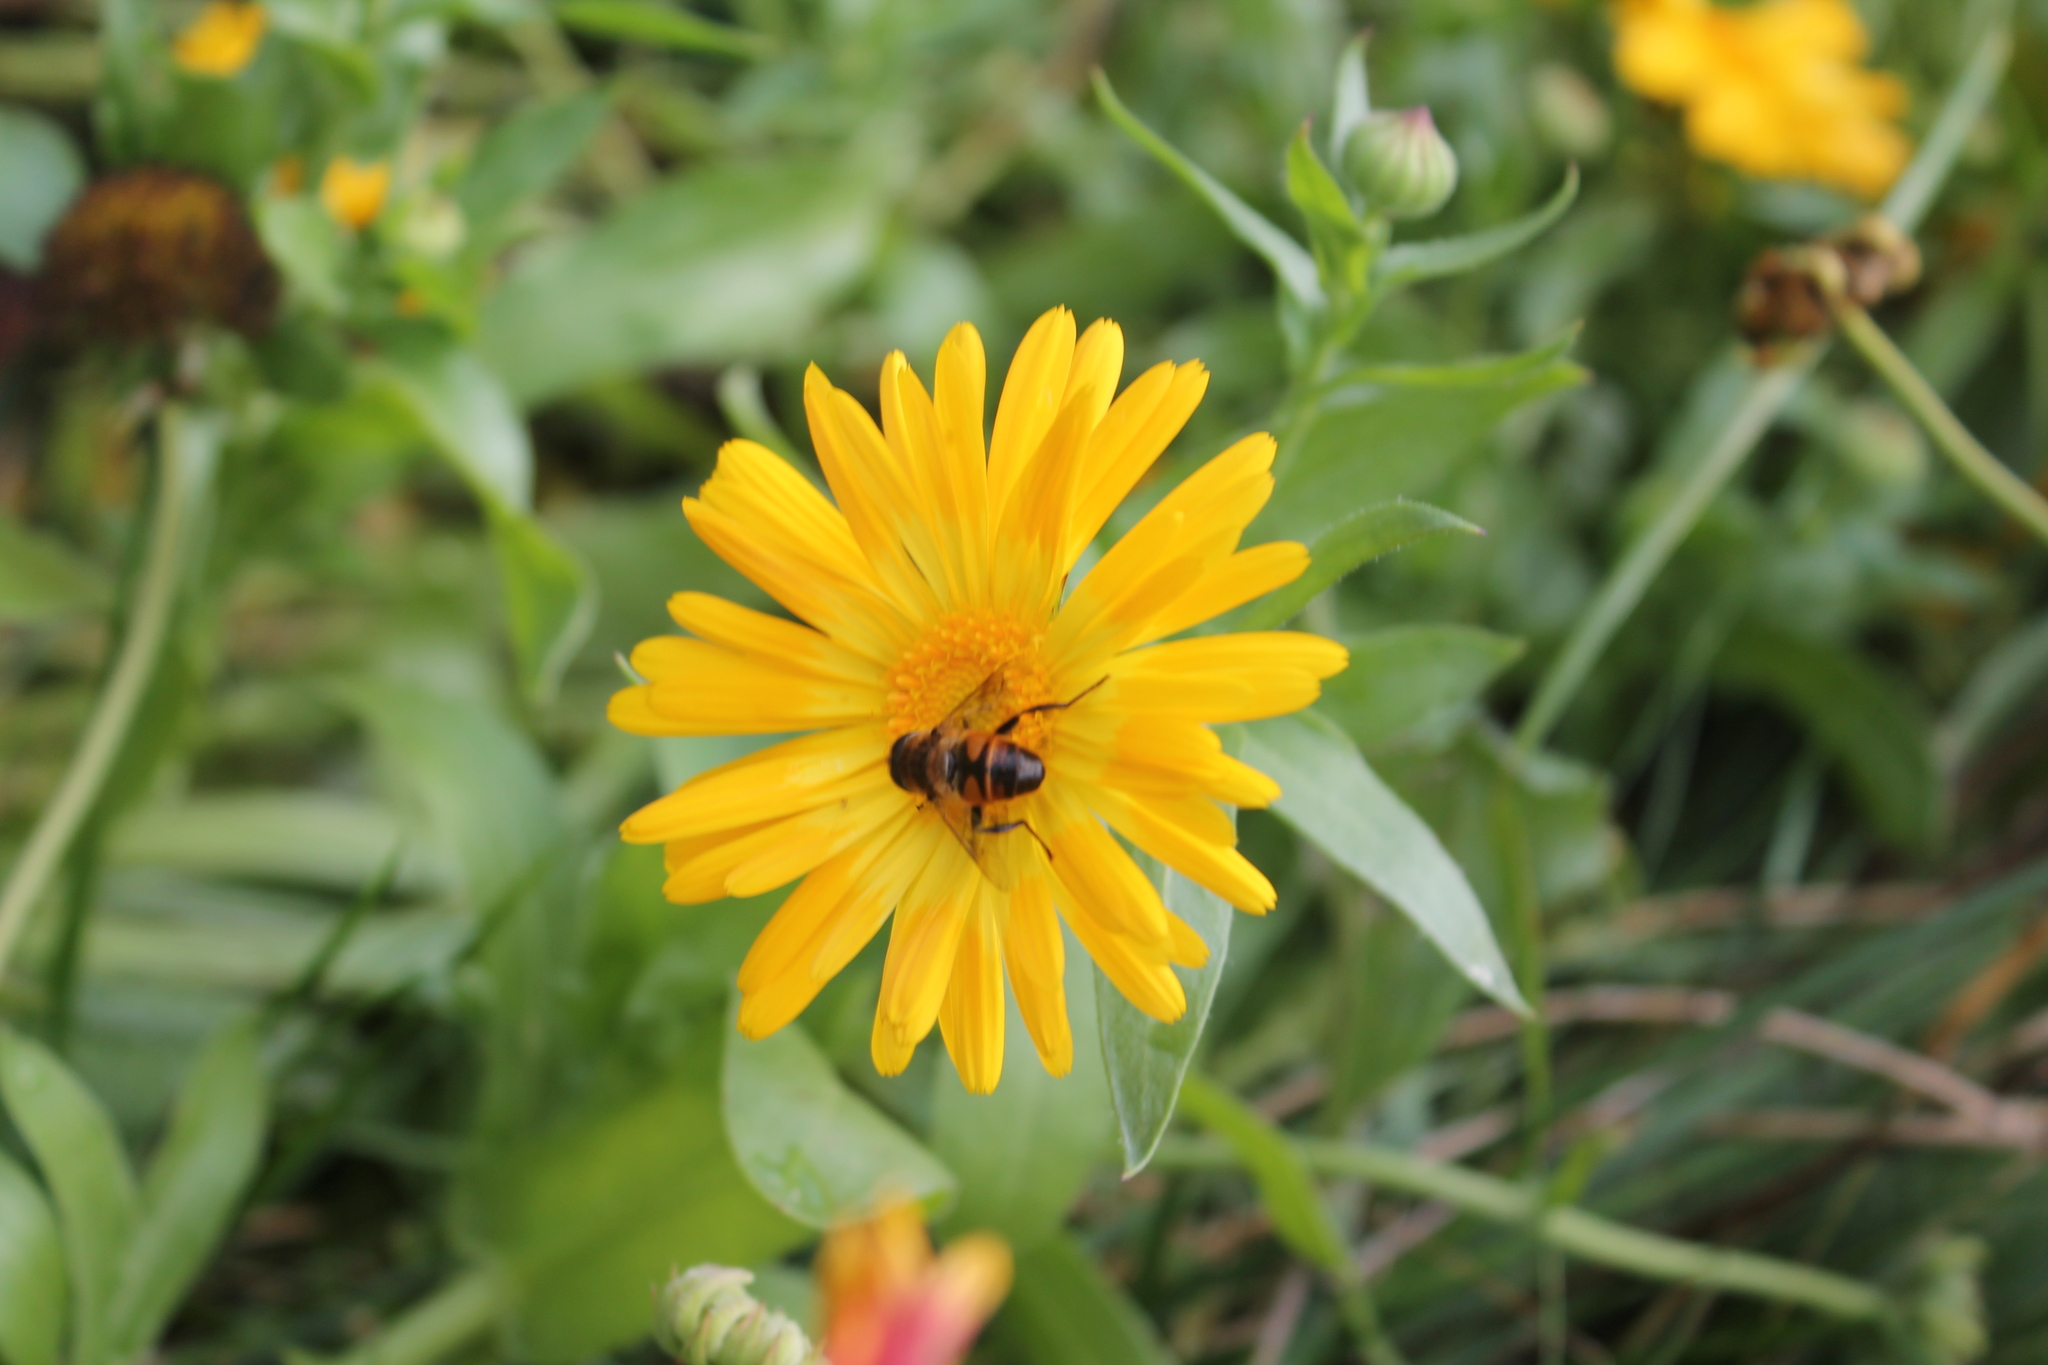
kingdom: Animalia
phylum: Arthropoda
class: Insecta
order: Diptera
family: Syrphidae
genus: Eristalis
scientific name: Eristalis tenax
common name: Drone fly
